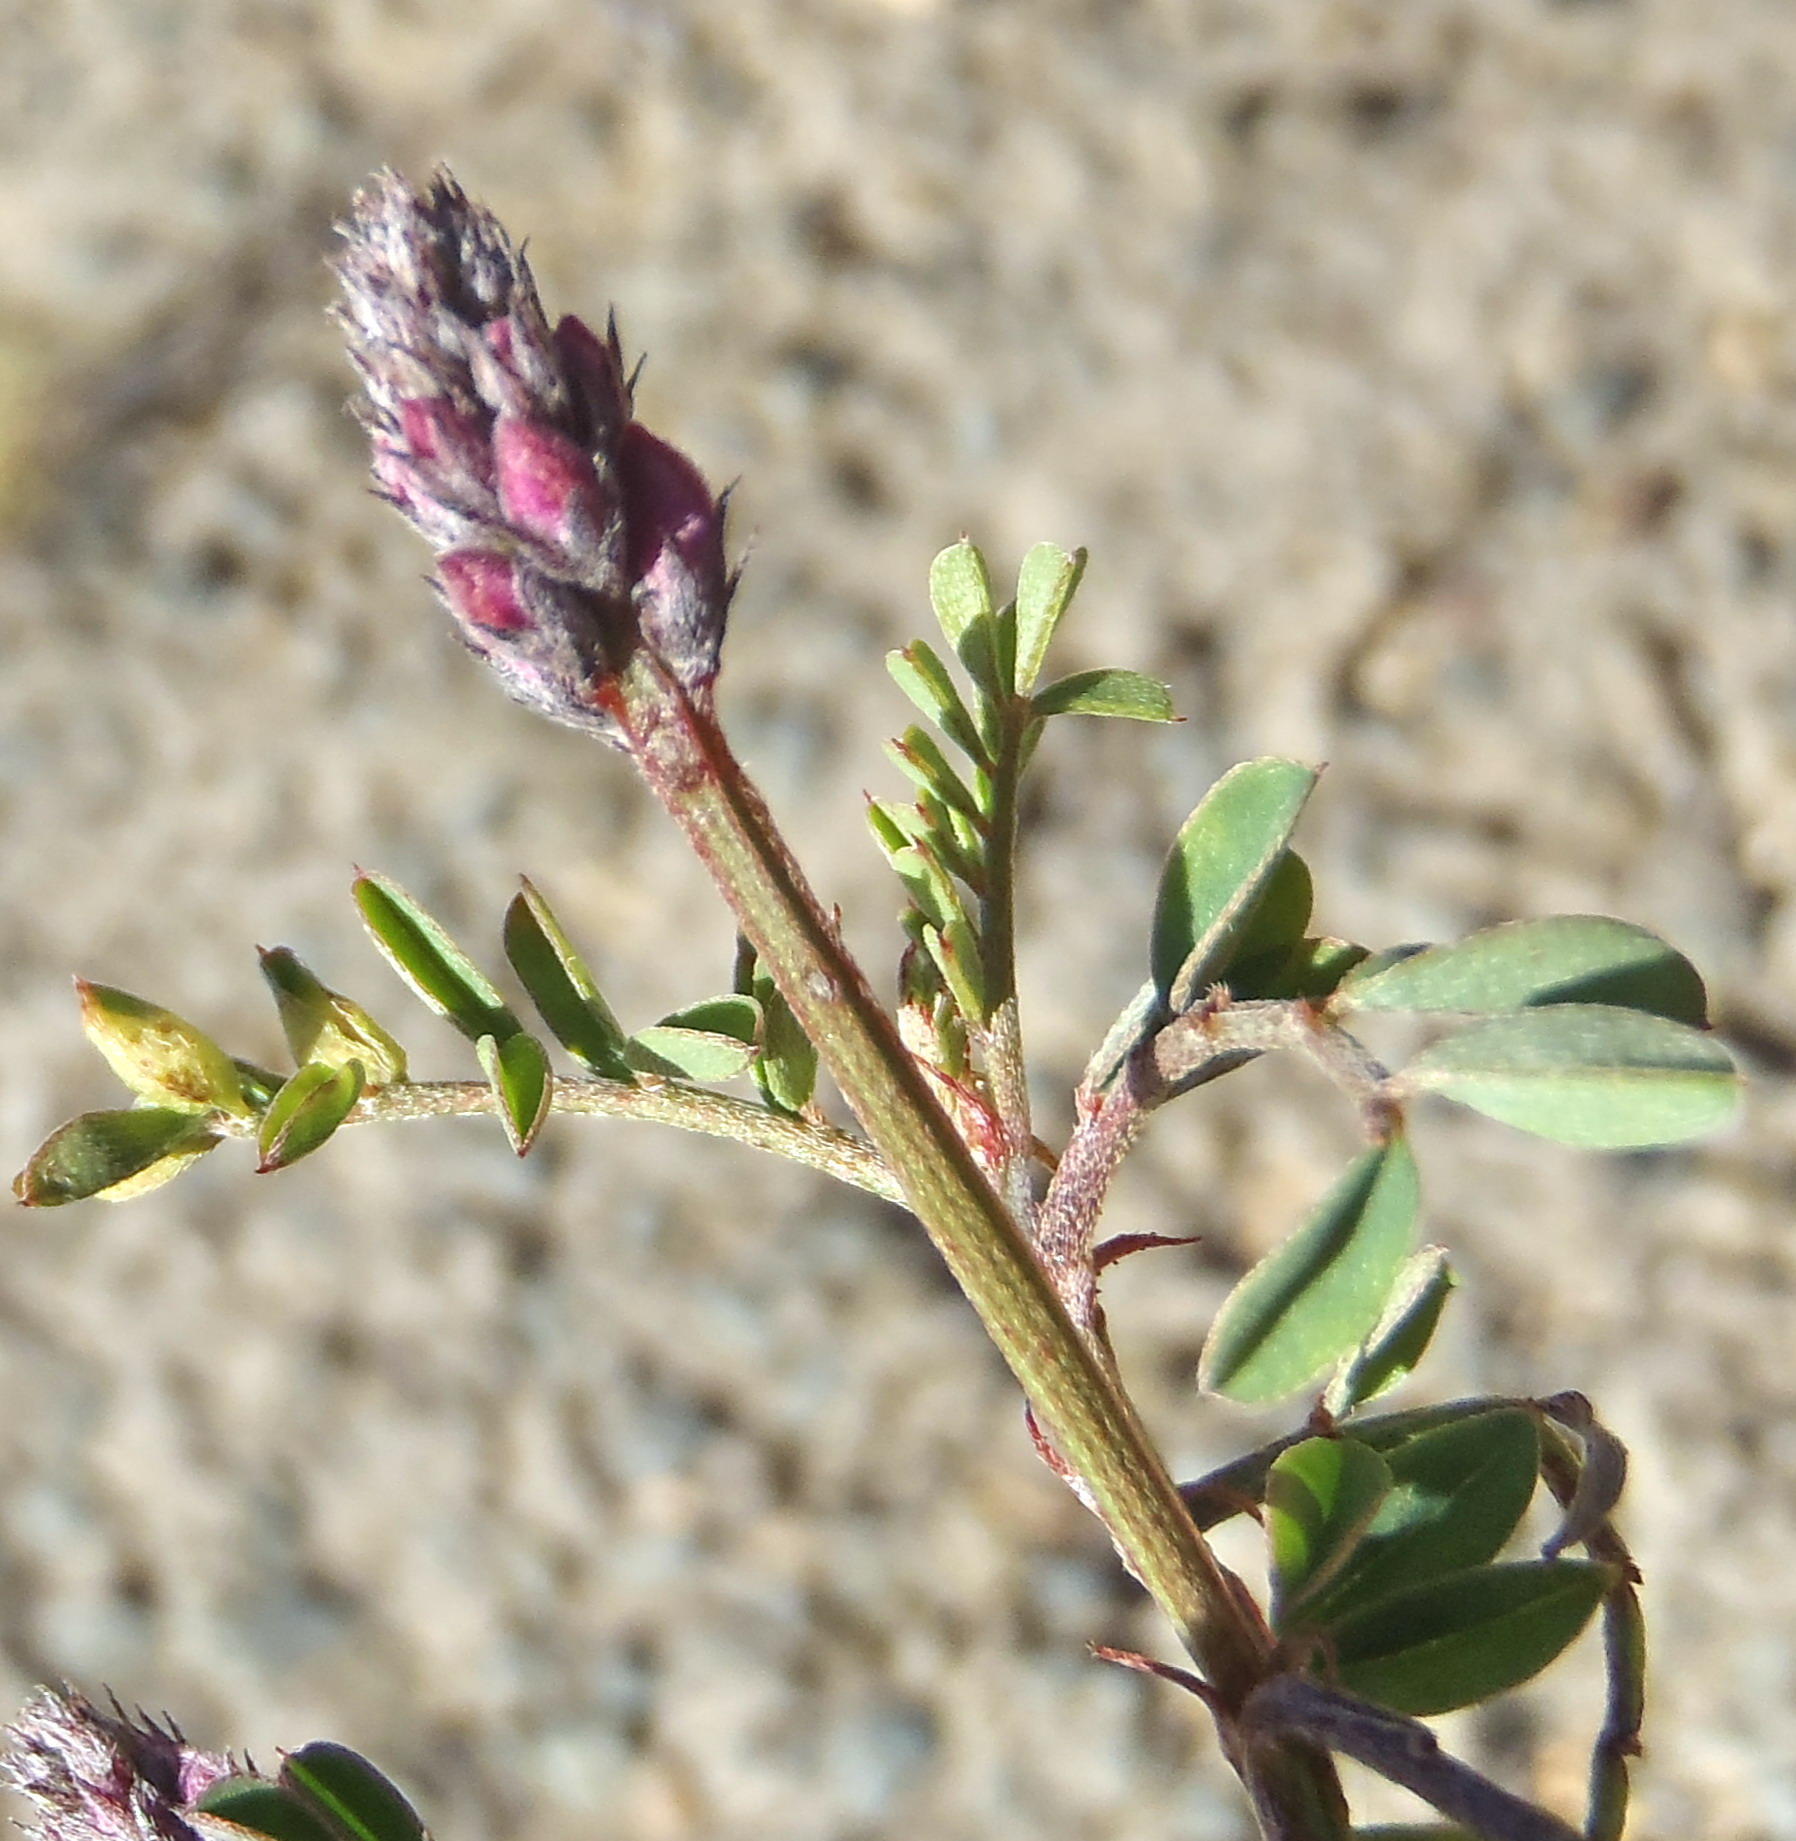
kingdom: Plantae
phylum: Tracheophyta
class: Magnoliopsida
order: Fabales
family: Fabaceae
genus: Indigofera
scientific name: Indigofera declinata
